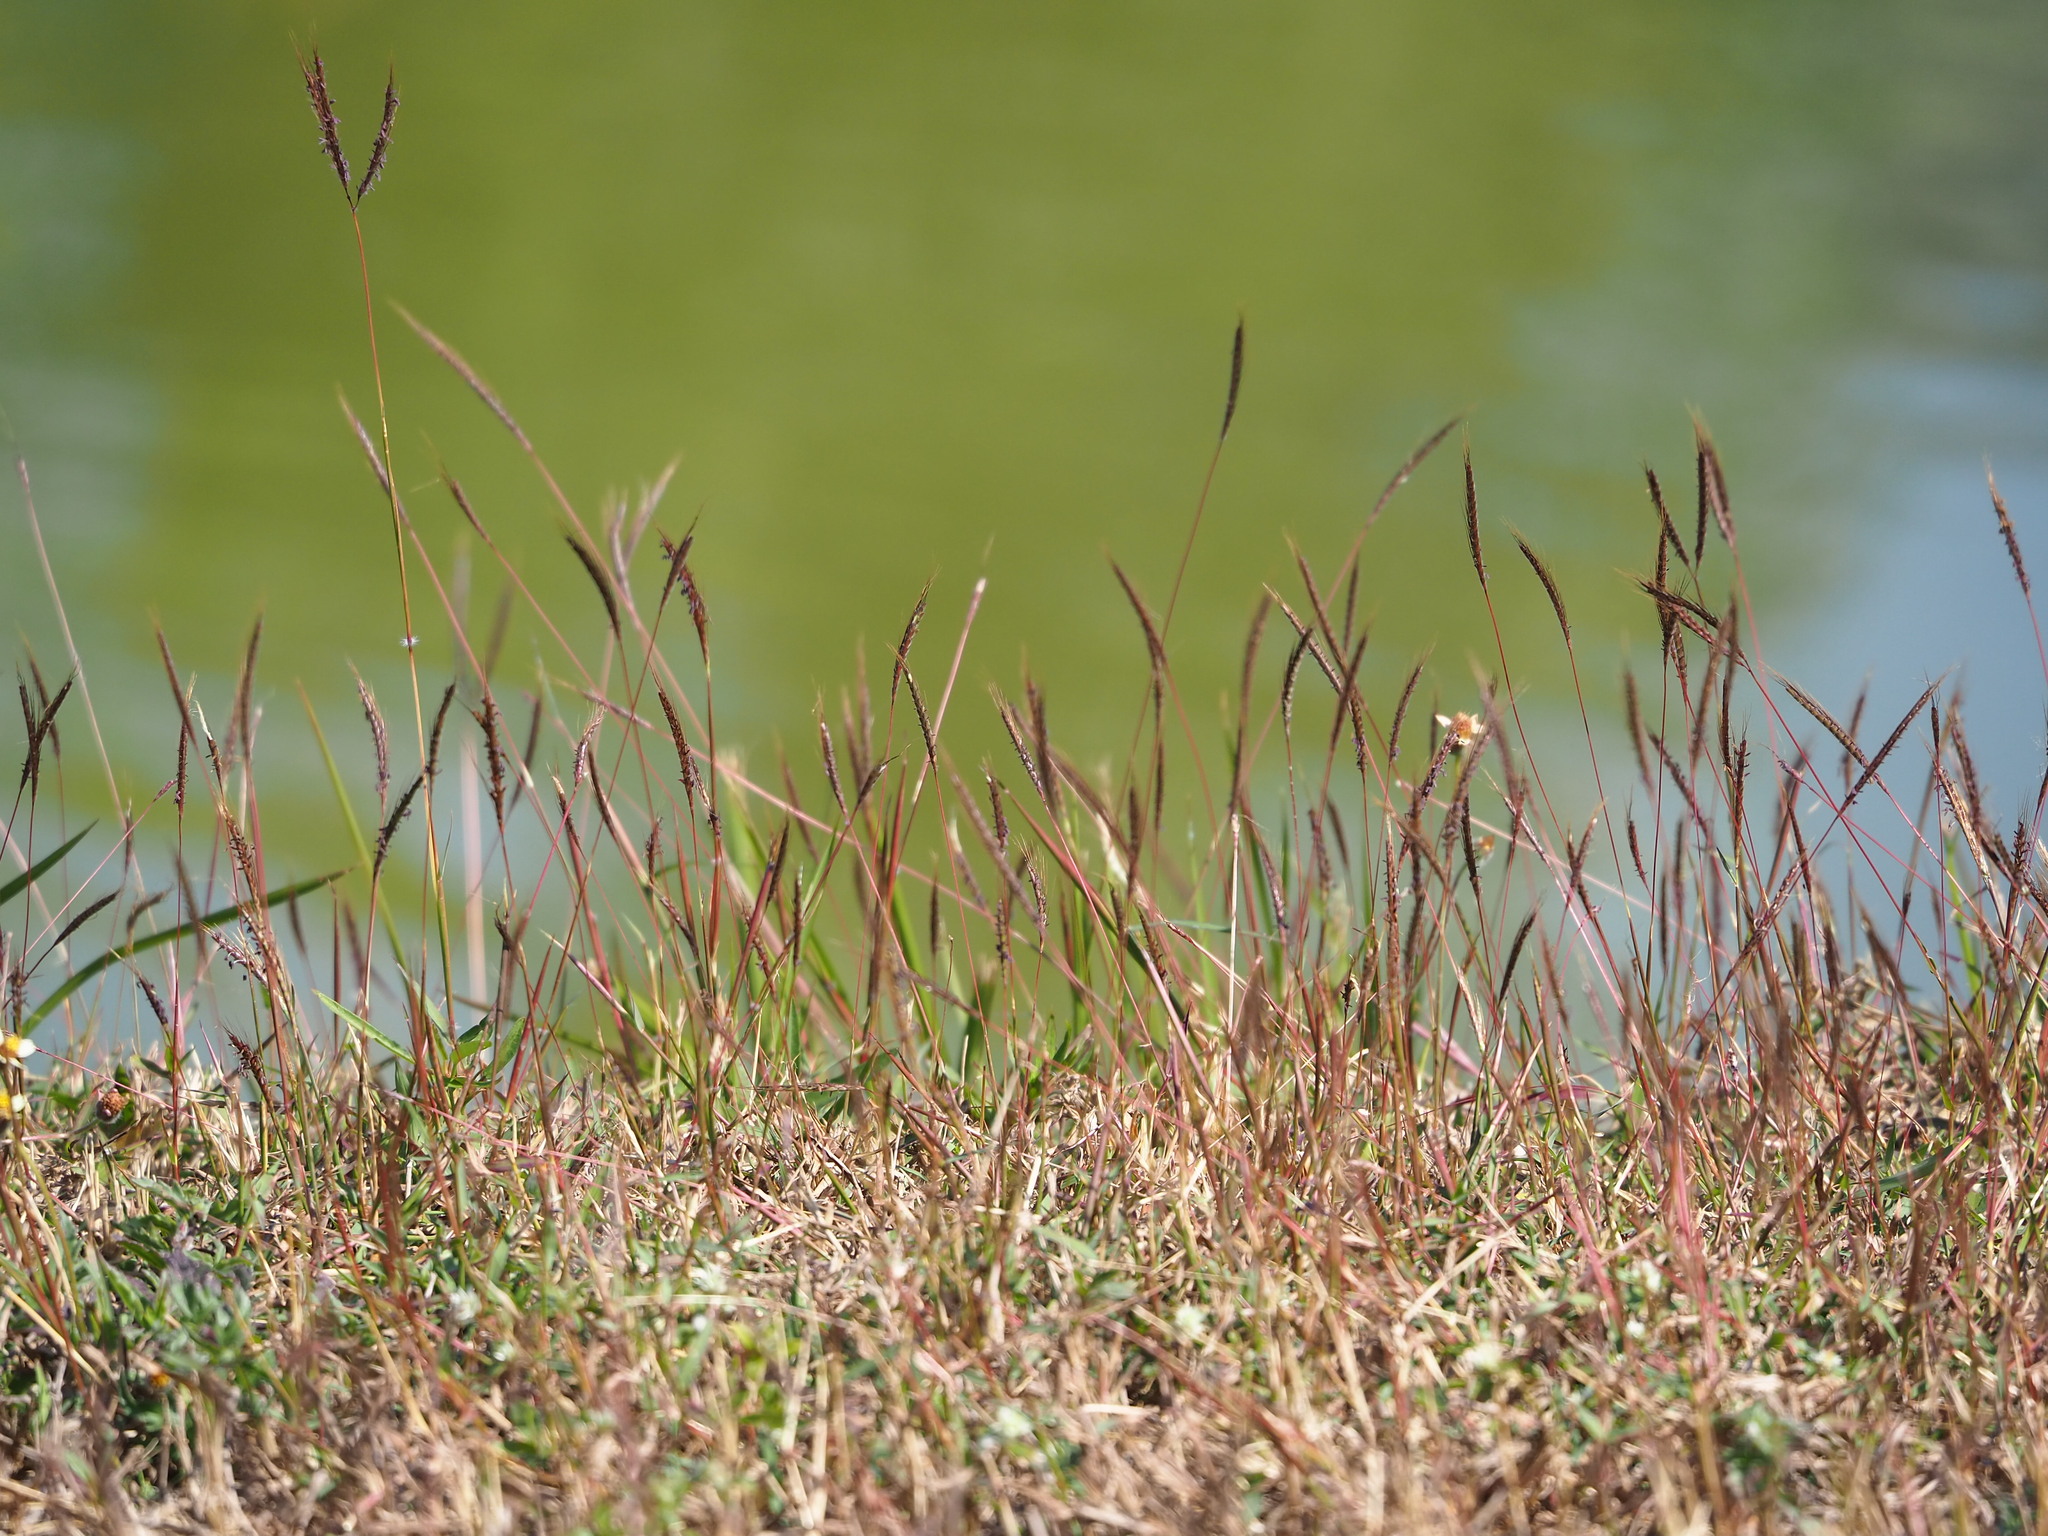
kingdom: Plantae
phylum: Tracheophyta
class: Liliopsida
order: Poales
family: Poaceae
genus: Dichanthium
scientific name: Dichanthium annulatum
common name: Kleberg's bluestem
